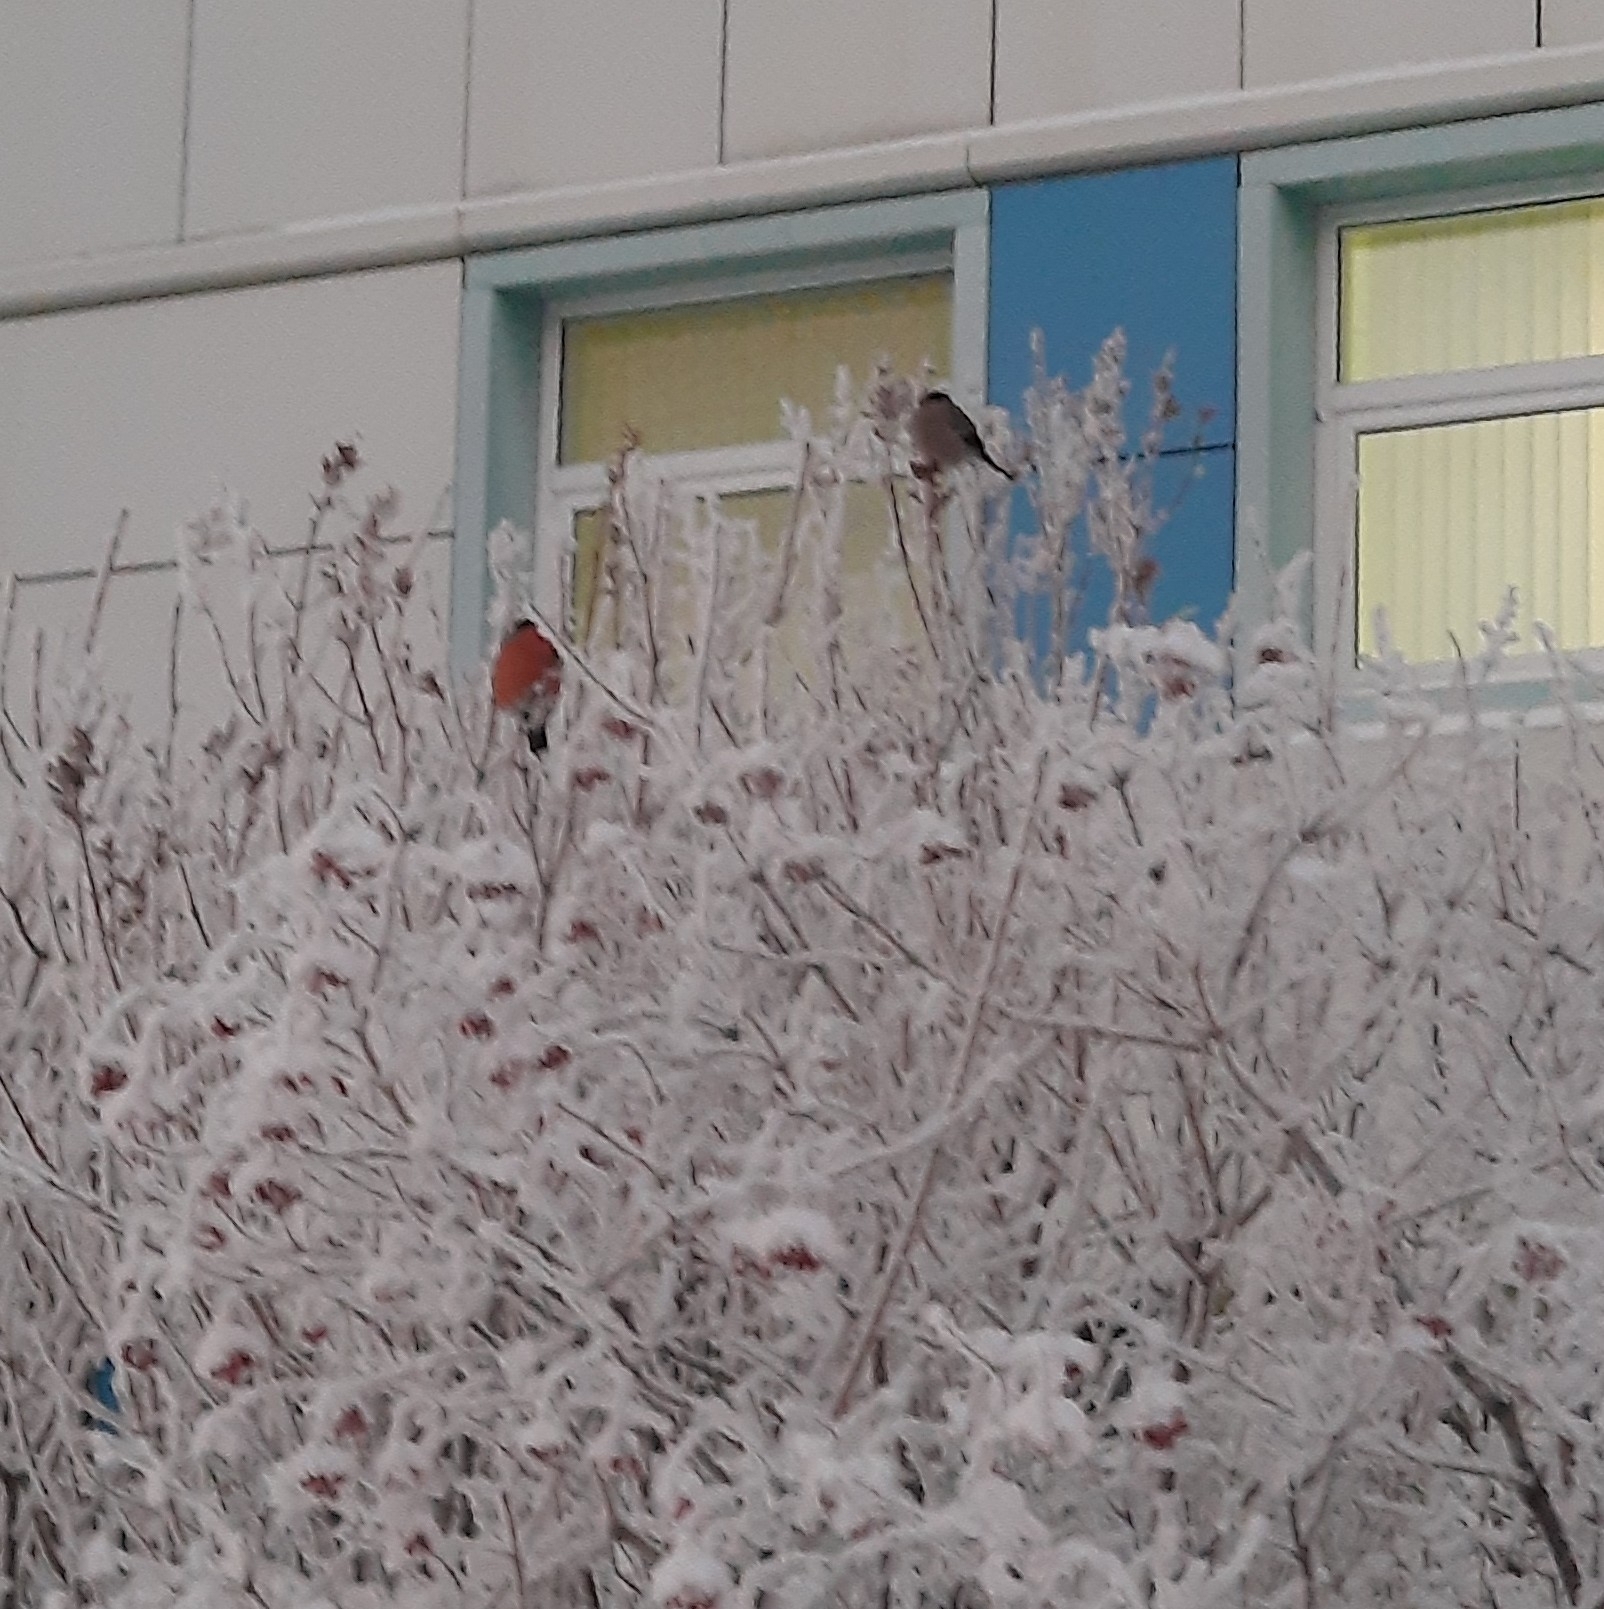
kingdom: Animalia
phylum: Chordata
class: Aves
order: Passeriformes
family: Fringillidae
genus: Pyrrhula
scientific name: Pyrrhula pyrrhula
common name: Eurasian bullfinch
